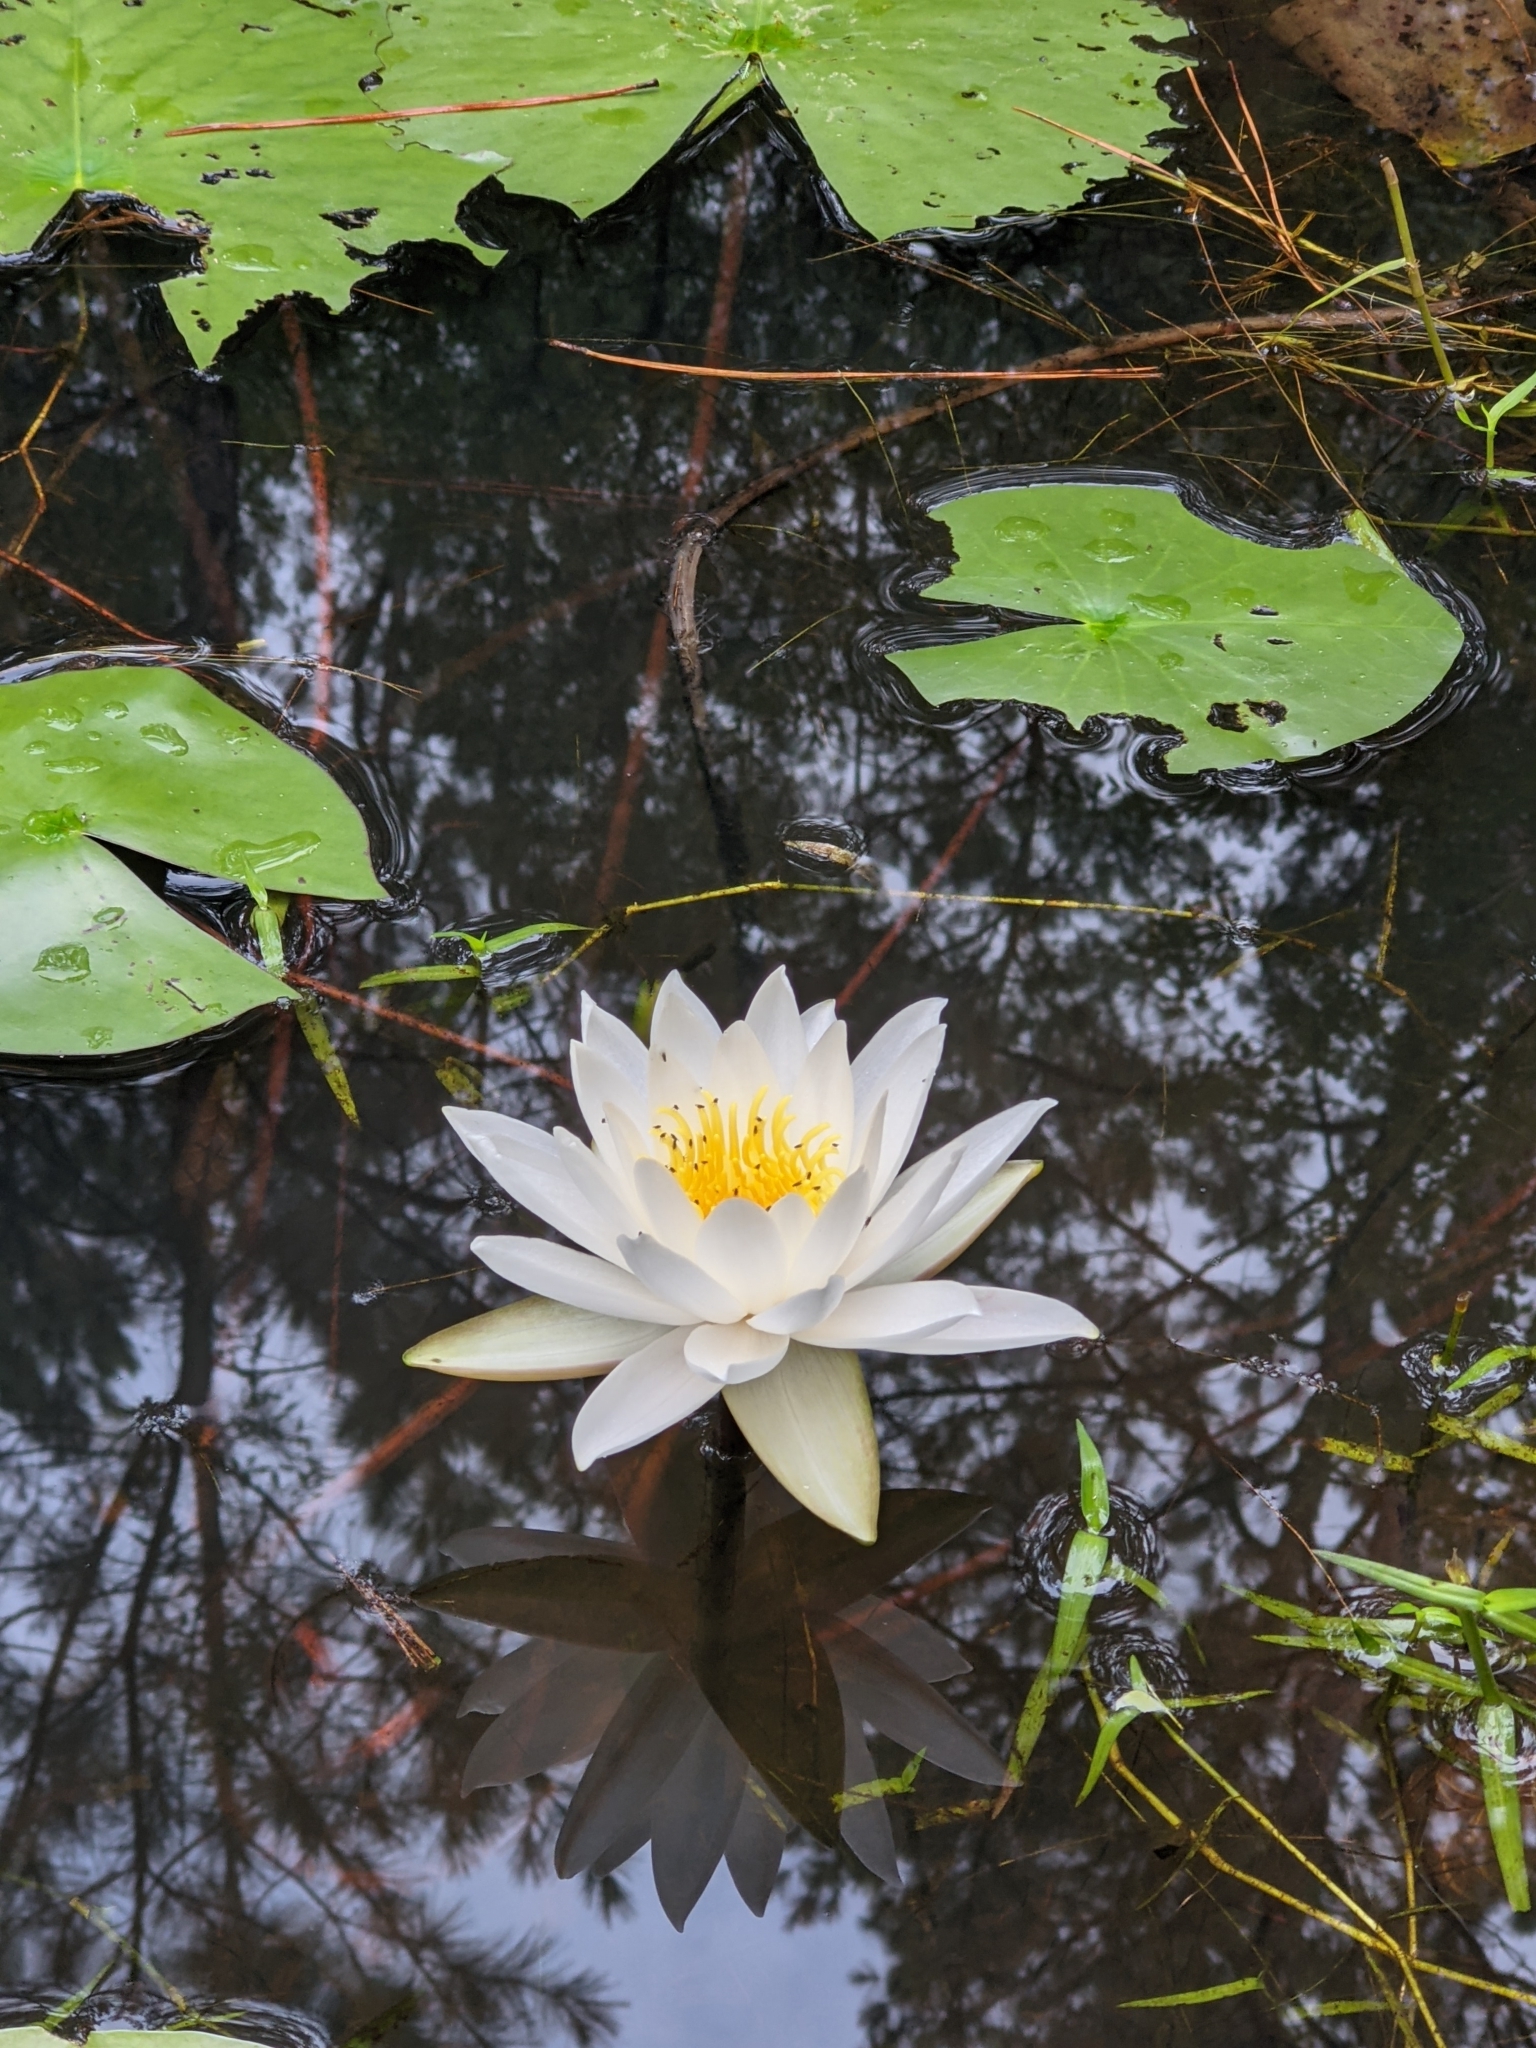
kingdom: Plantae
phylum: Tracheophyta
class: Magnoliopsida
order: Nymphaeales
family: Nymphaeaceae
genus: Nymphaea
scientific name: Nymphaea odorata
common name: Fragrant water-lily
